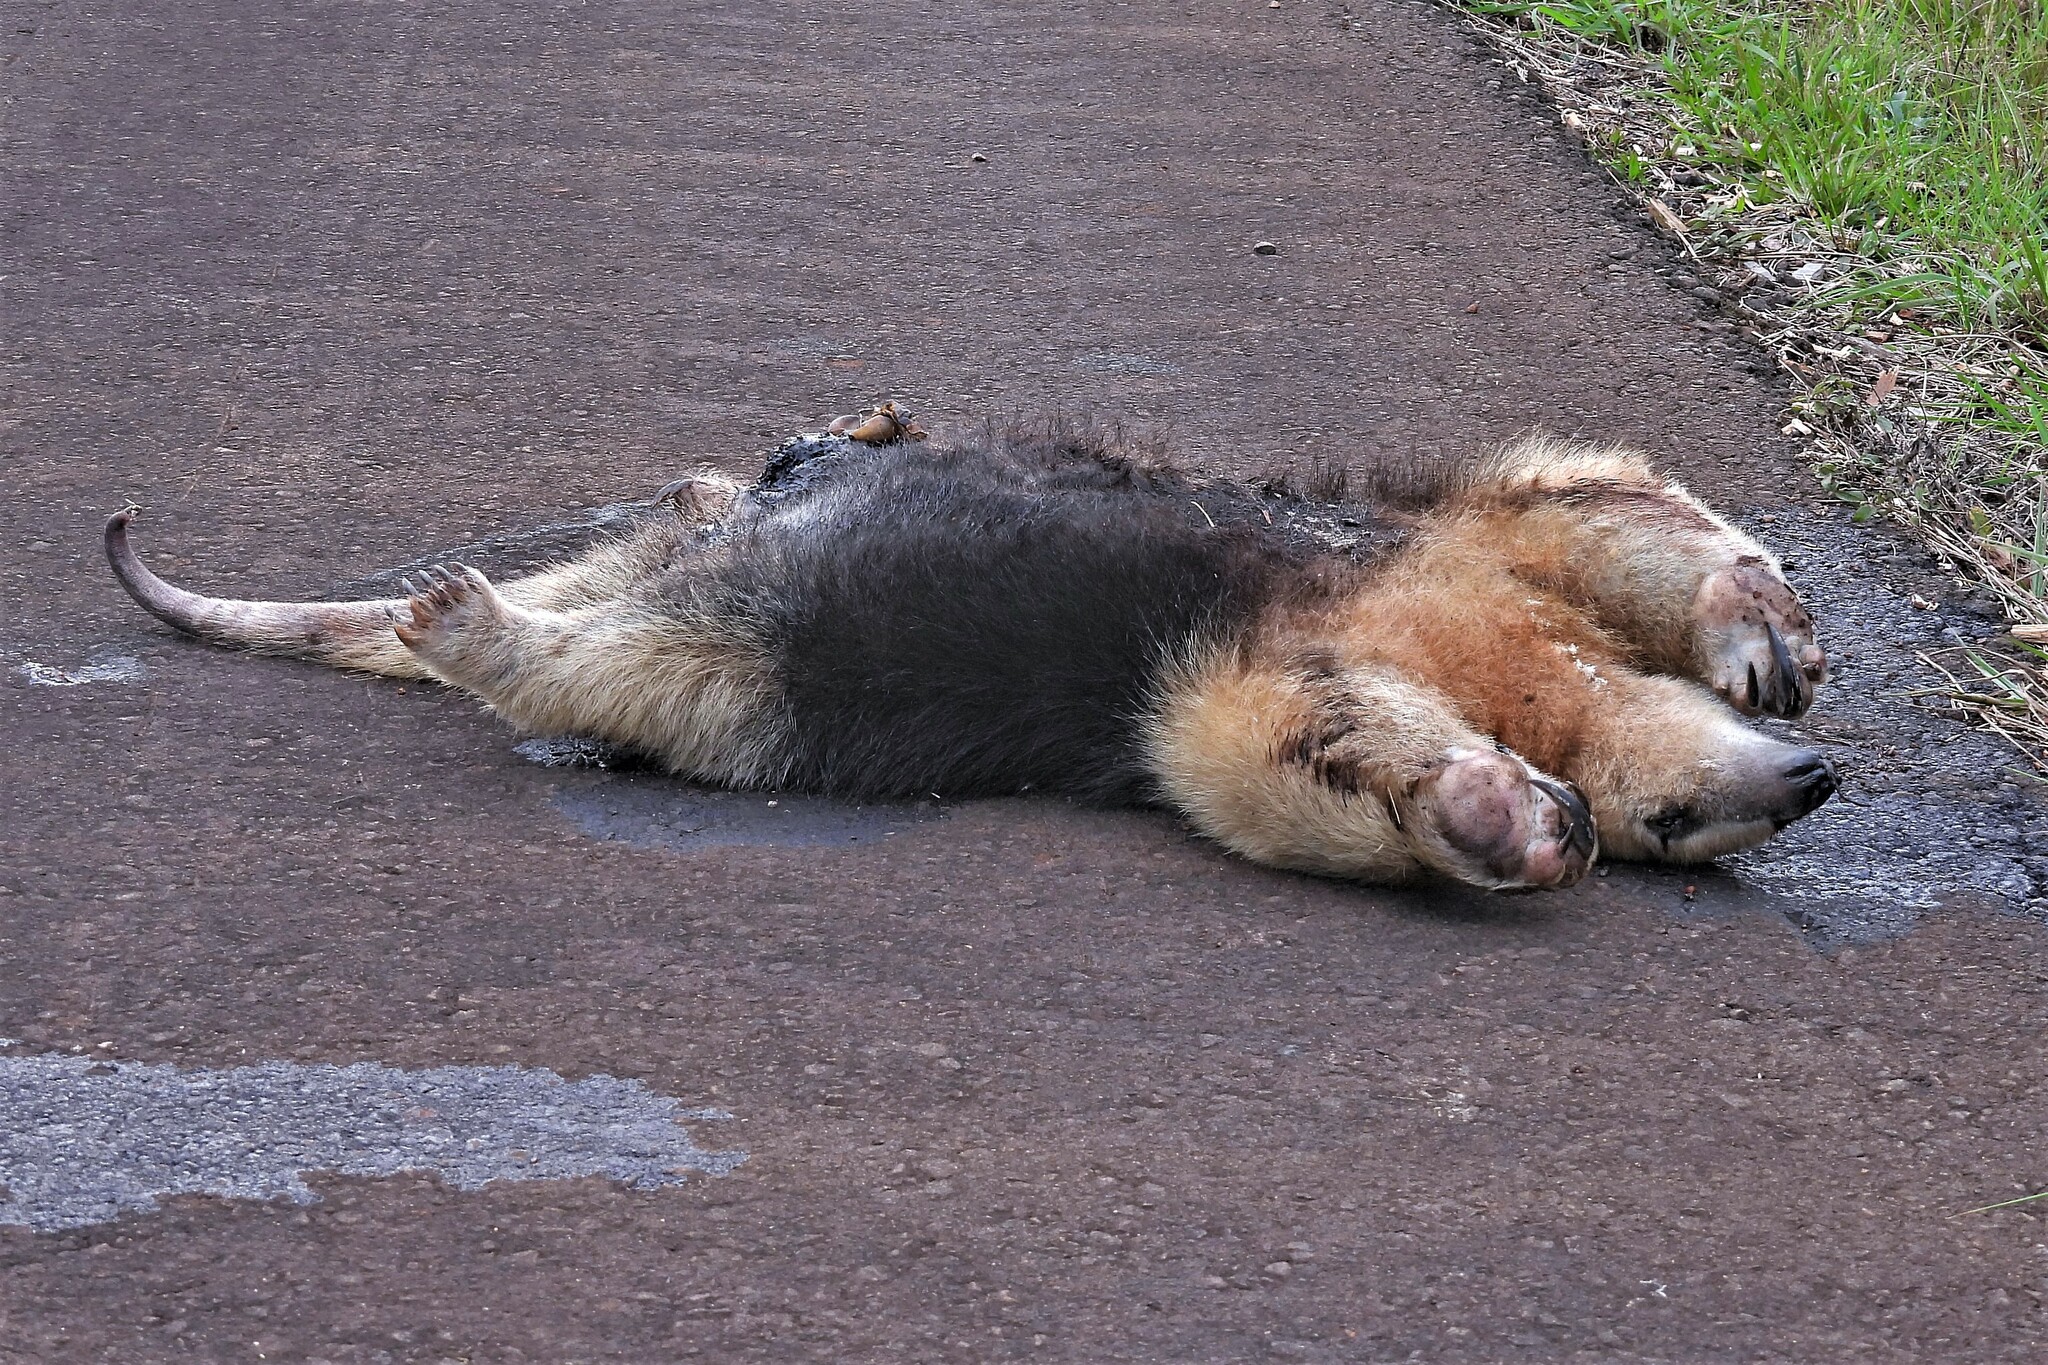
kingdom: Animalia
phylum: Chordata
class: Mammalia
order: Pilosa
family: Myrmecophagidae
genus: Tamandua
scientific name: Tamandua tetradactyla
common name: Southern tamandua
